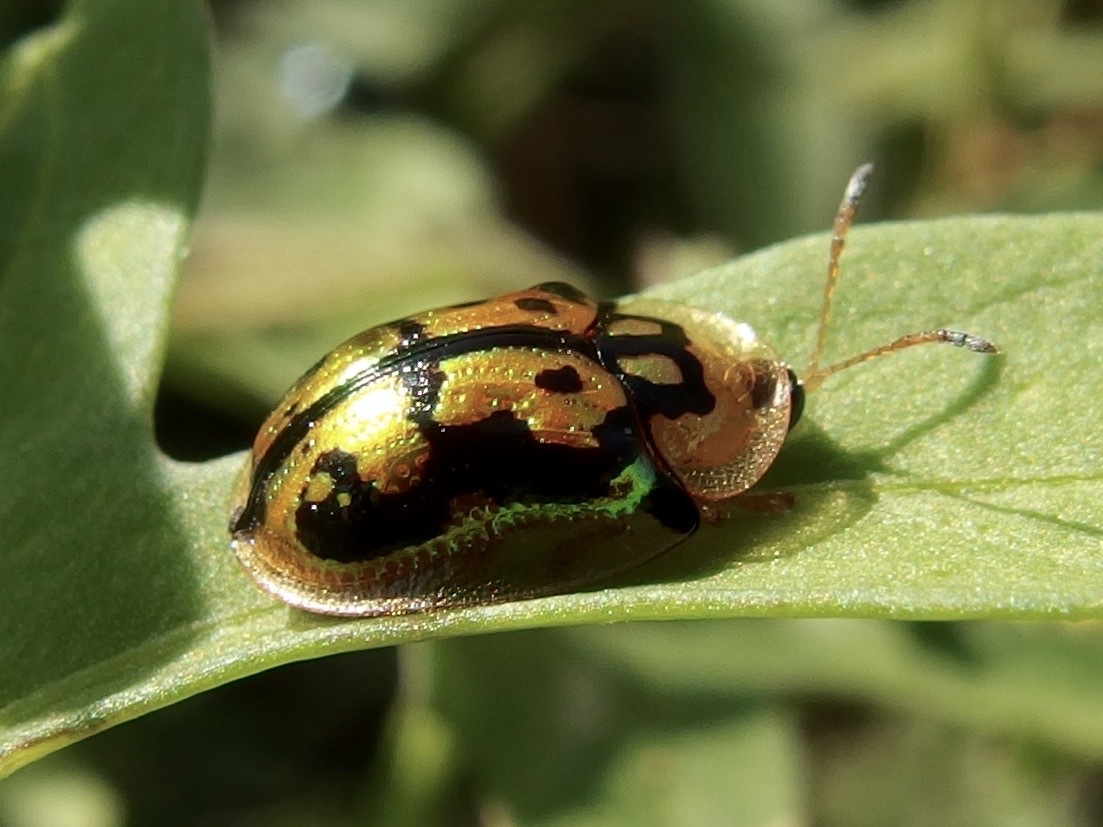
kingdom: Animalia
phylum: Arthropoda
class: Insecta
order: Coleoptera
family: Chrysomelidae
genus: Deloyala
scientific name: Deloyala lecontei
